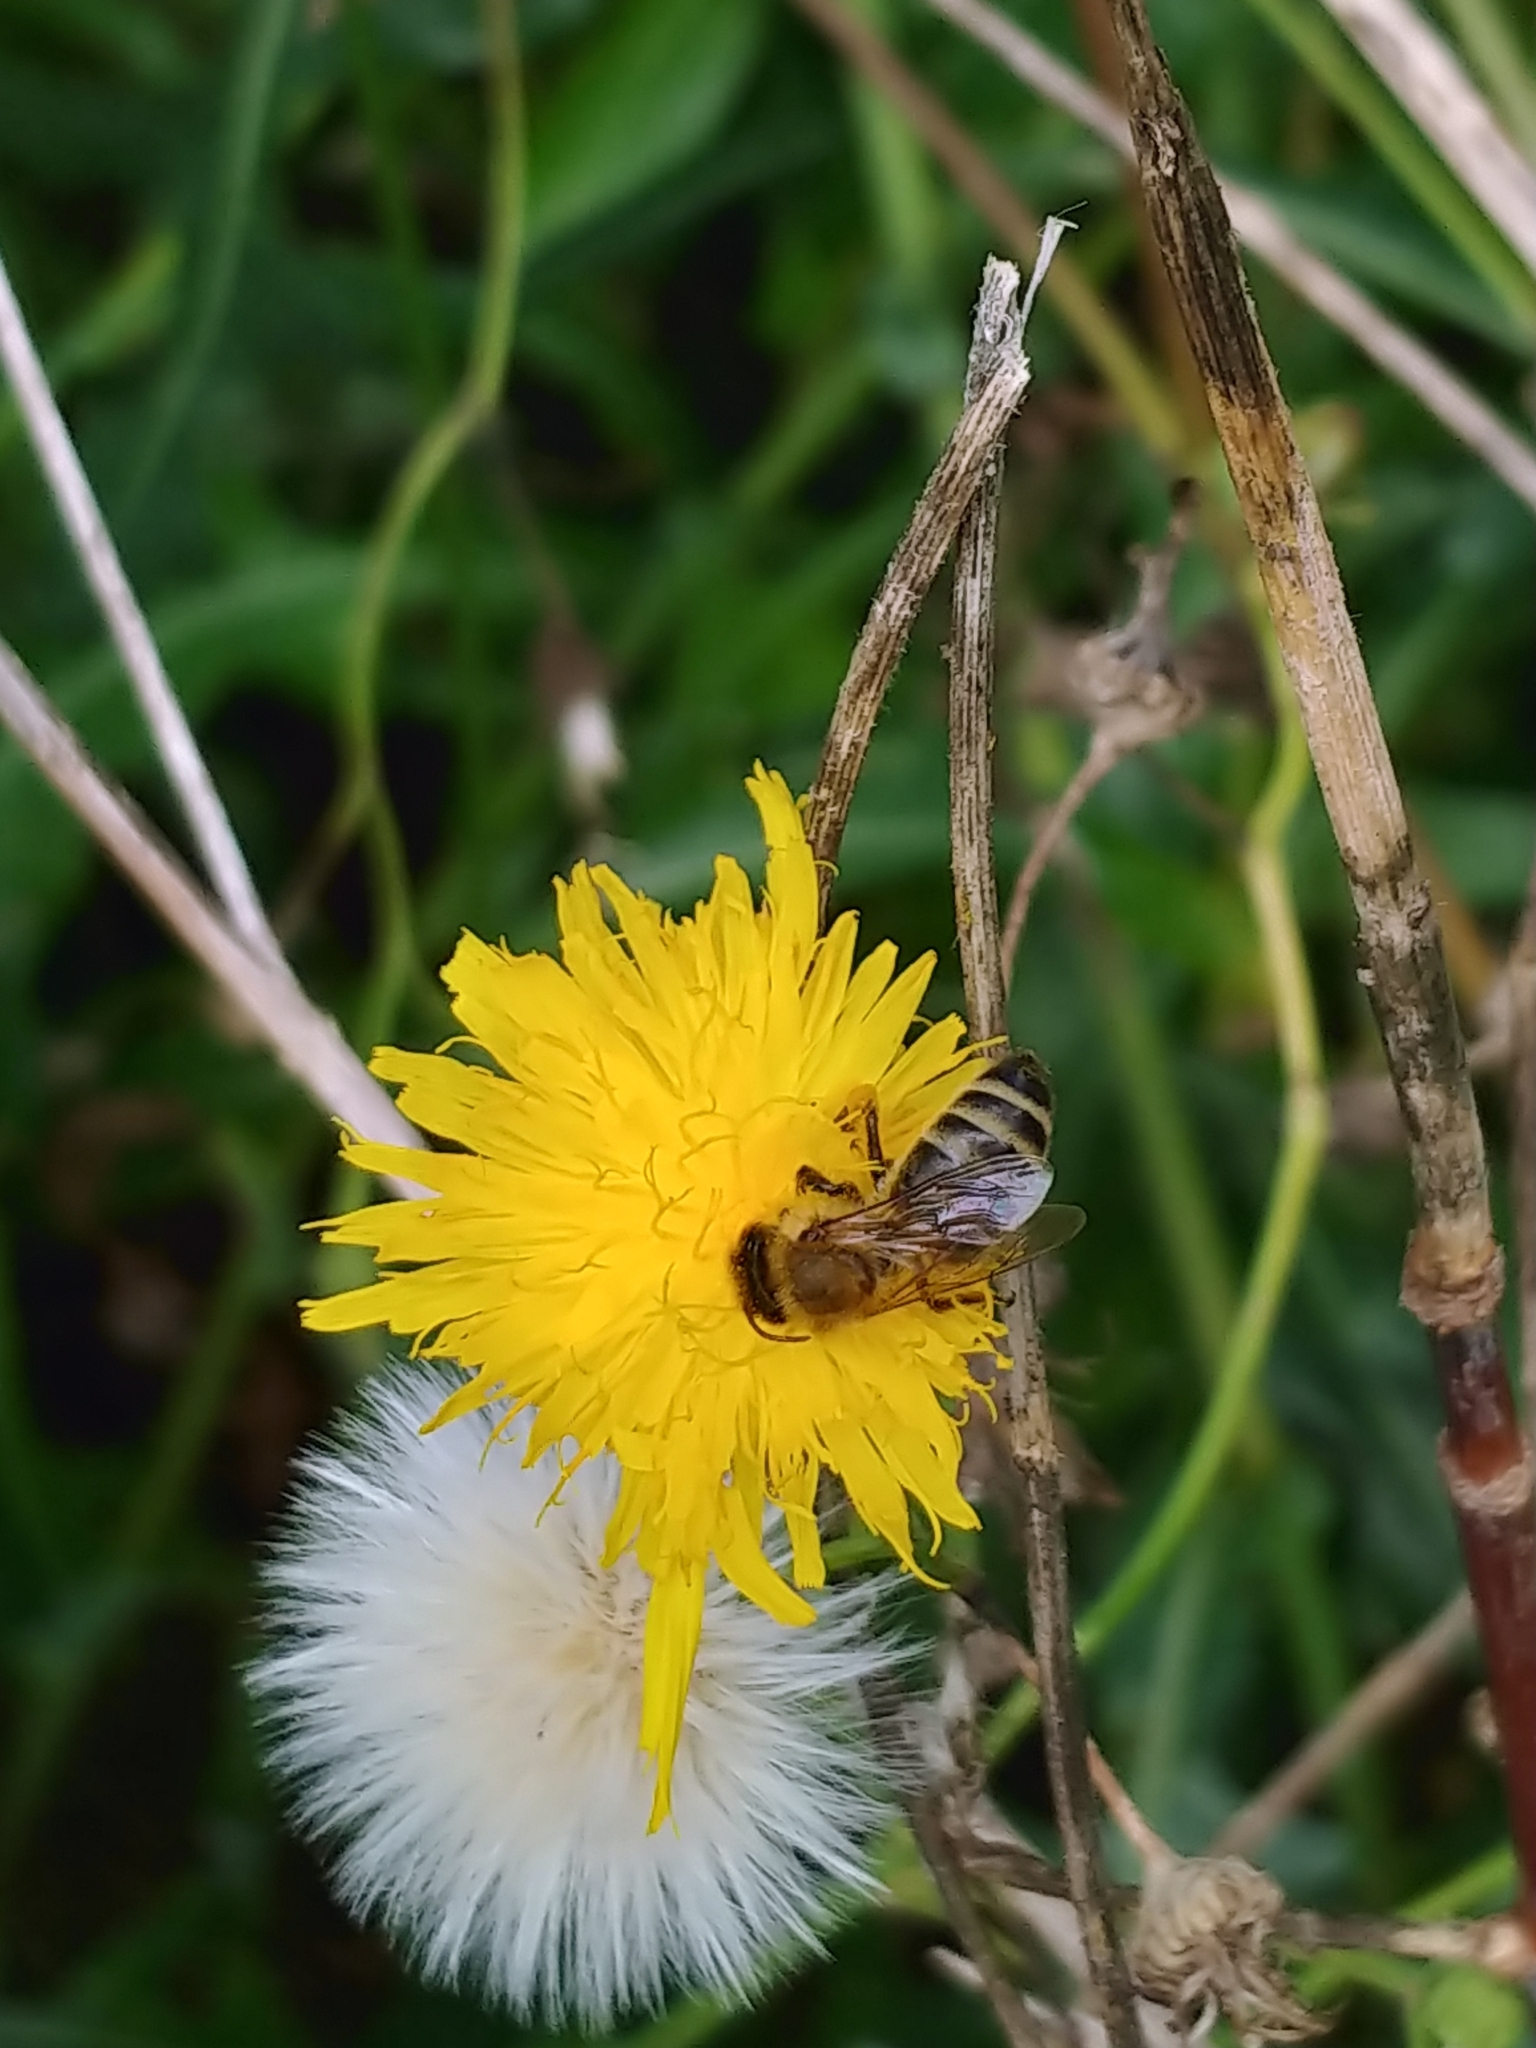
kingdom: Animalia
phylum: Arthropoda
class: Insecta
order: Hymenoptera
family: Apidae
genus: Apis
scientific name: Apis mellifera
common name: Honey bee
